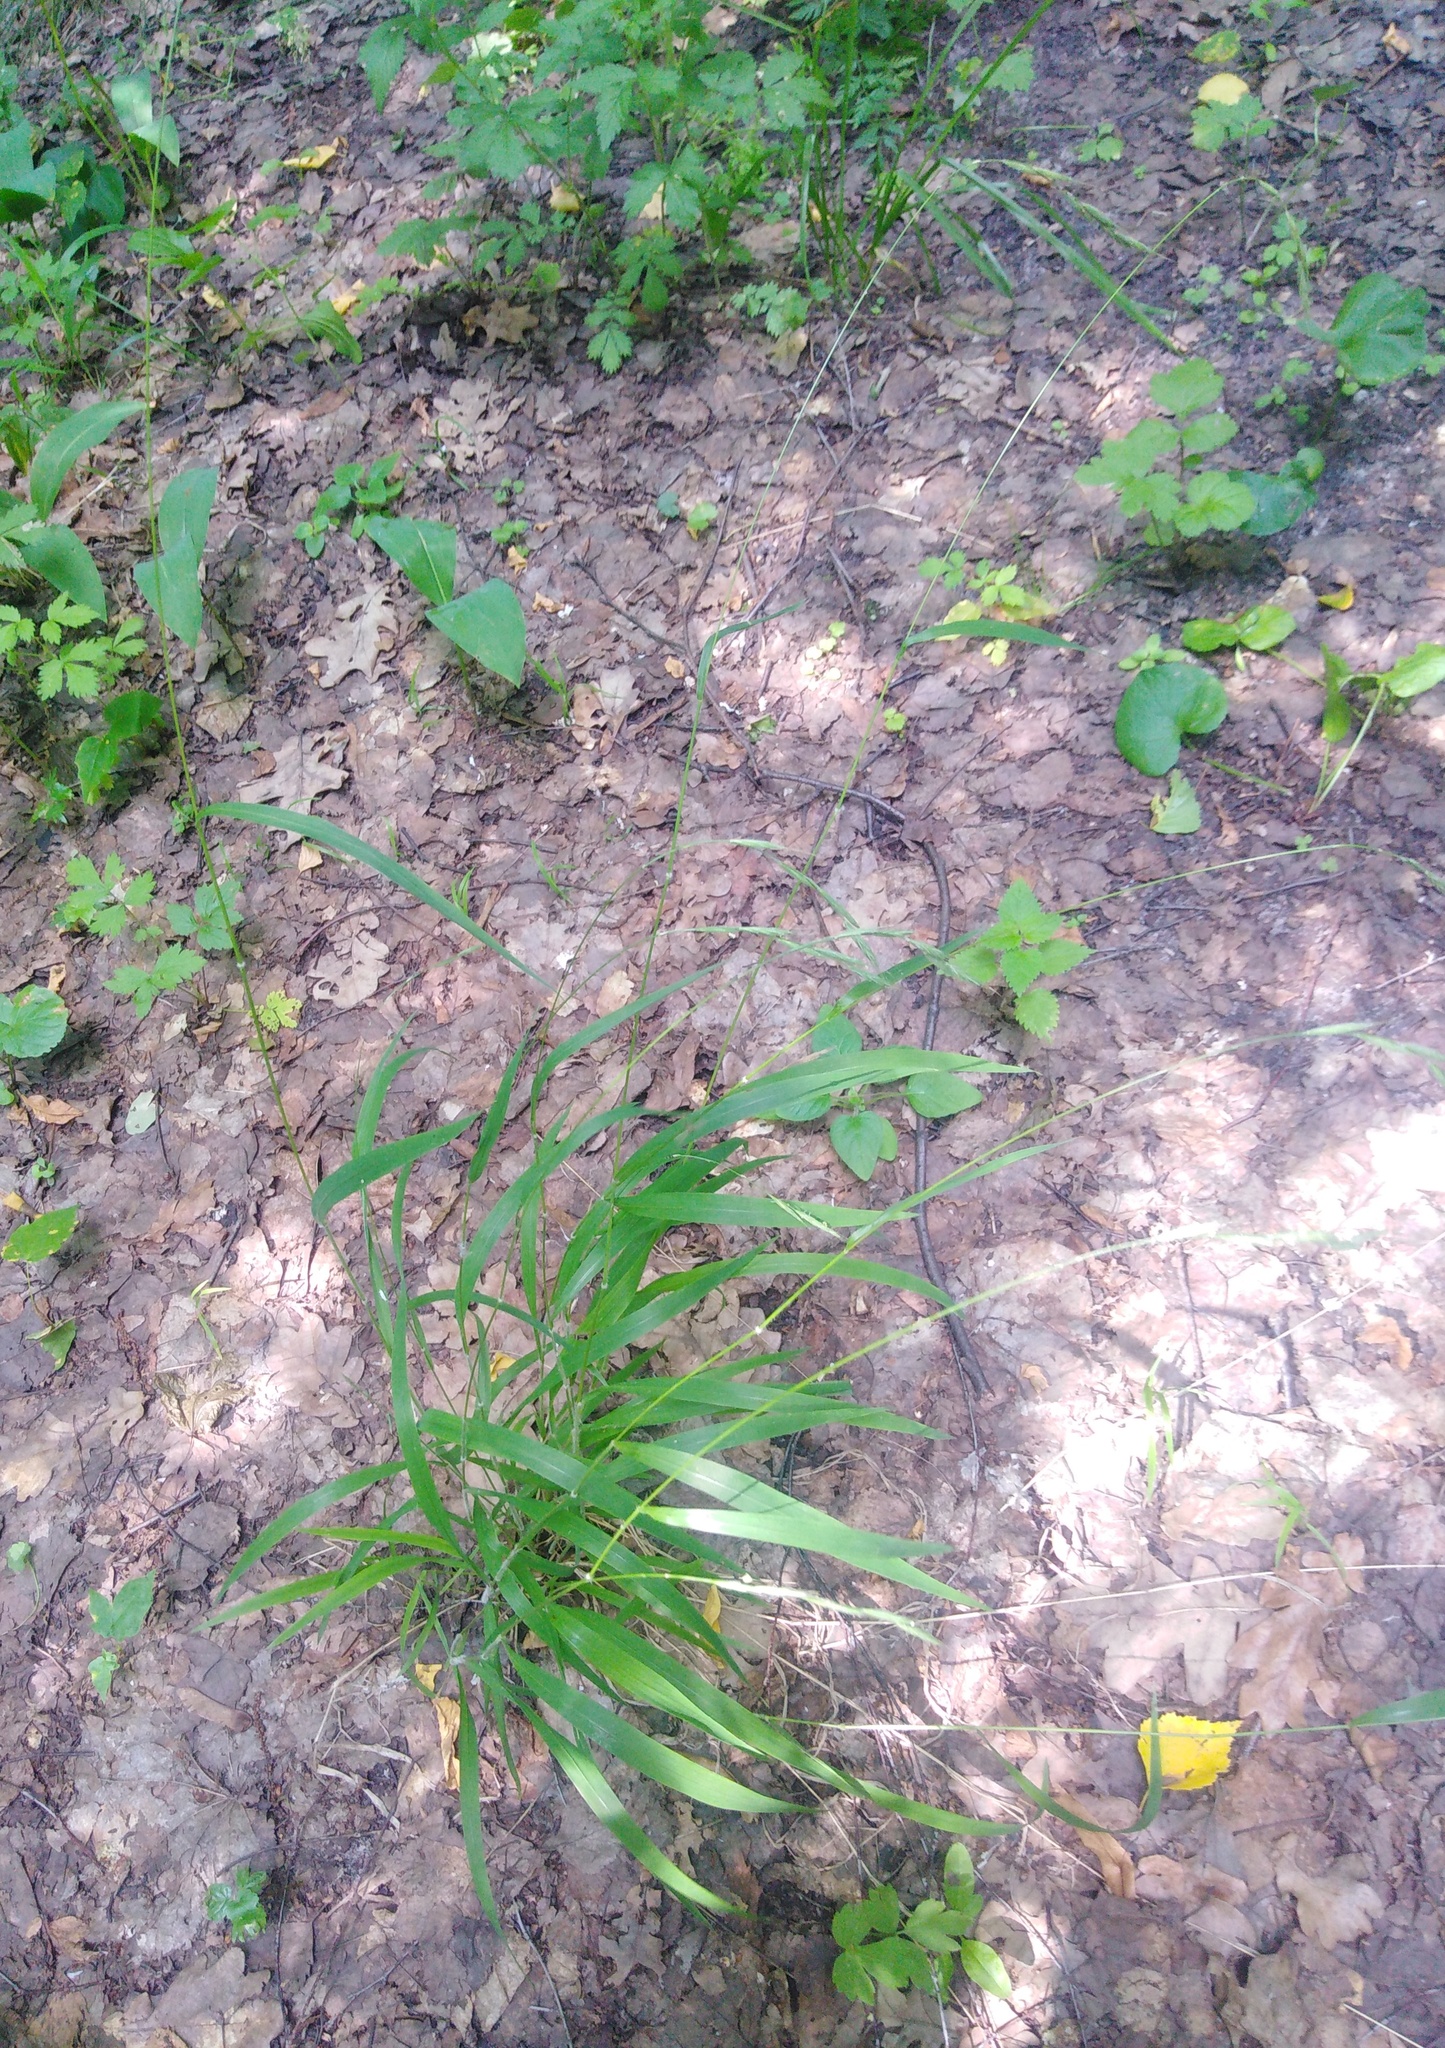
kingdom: Plantae
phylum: Tracheophyta
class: Liliopsida
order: Poales
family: Poaceae
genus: Brachypodium
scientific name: Brachypodium sylvaticum
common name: False-brome
